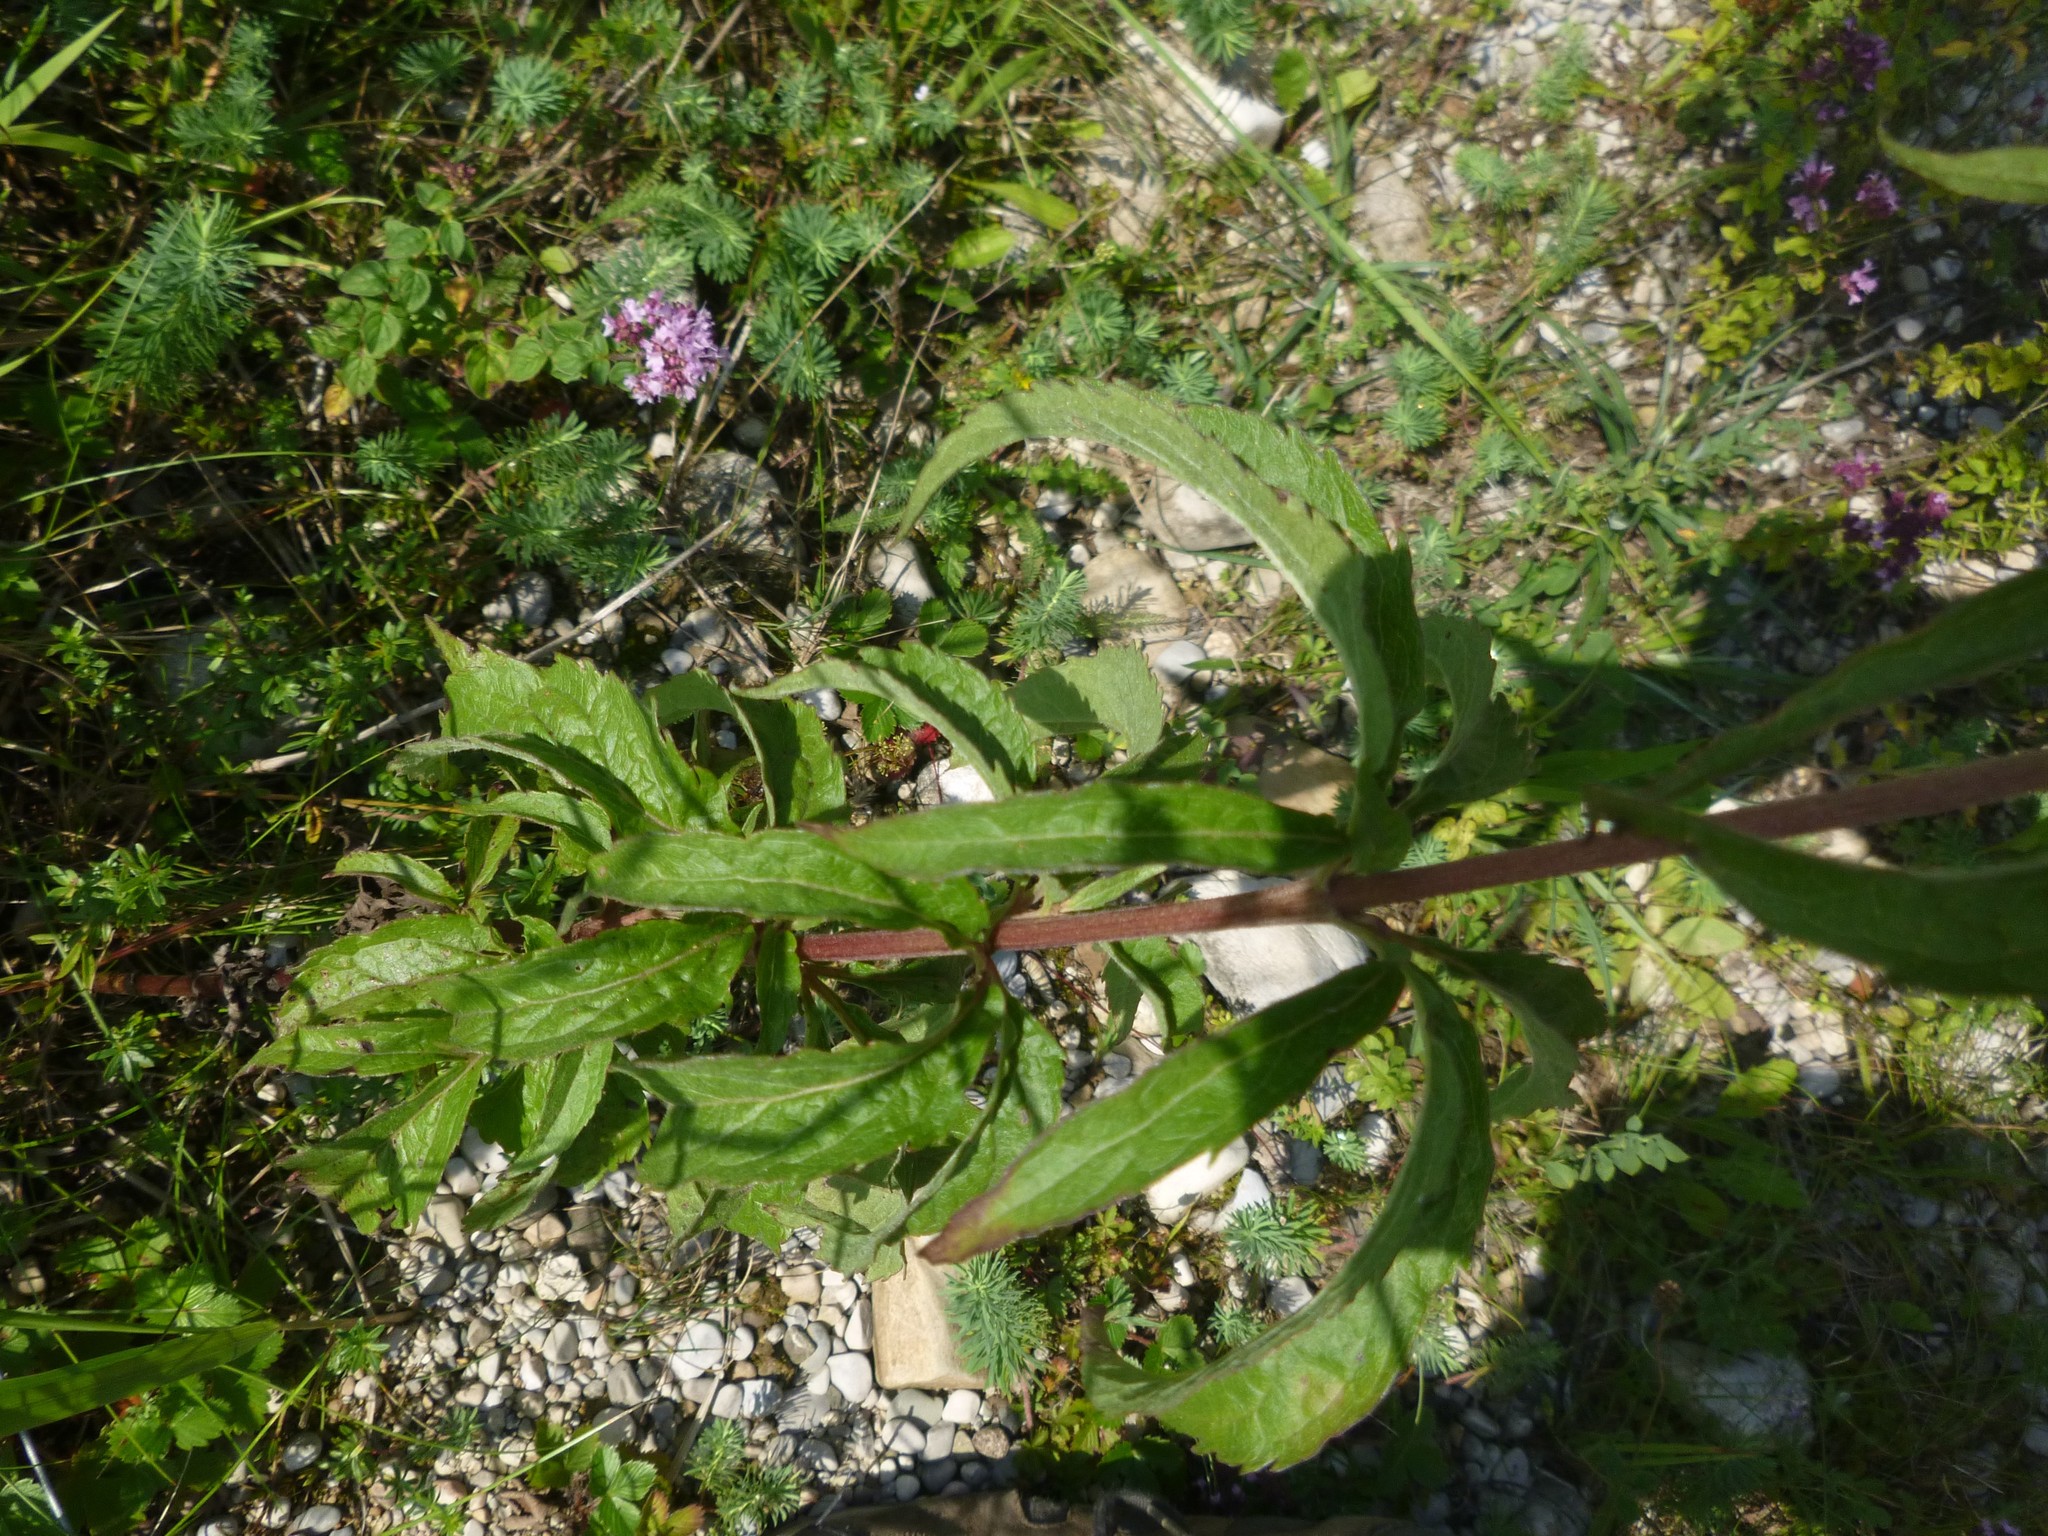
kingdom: Plantae
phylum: Tracheophyta
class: Magnoliopsida
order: Asterales
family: Asteraceae
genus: Eupatorium
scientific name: Eupatorium cannabinum
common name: Hemp-agrimony
